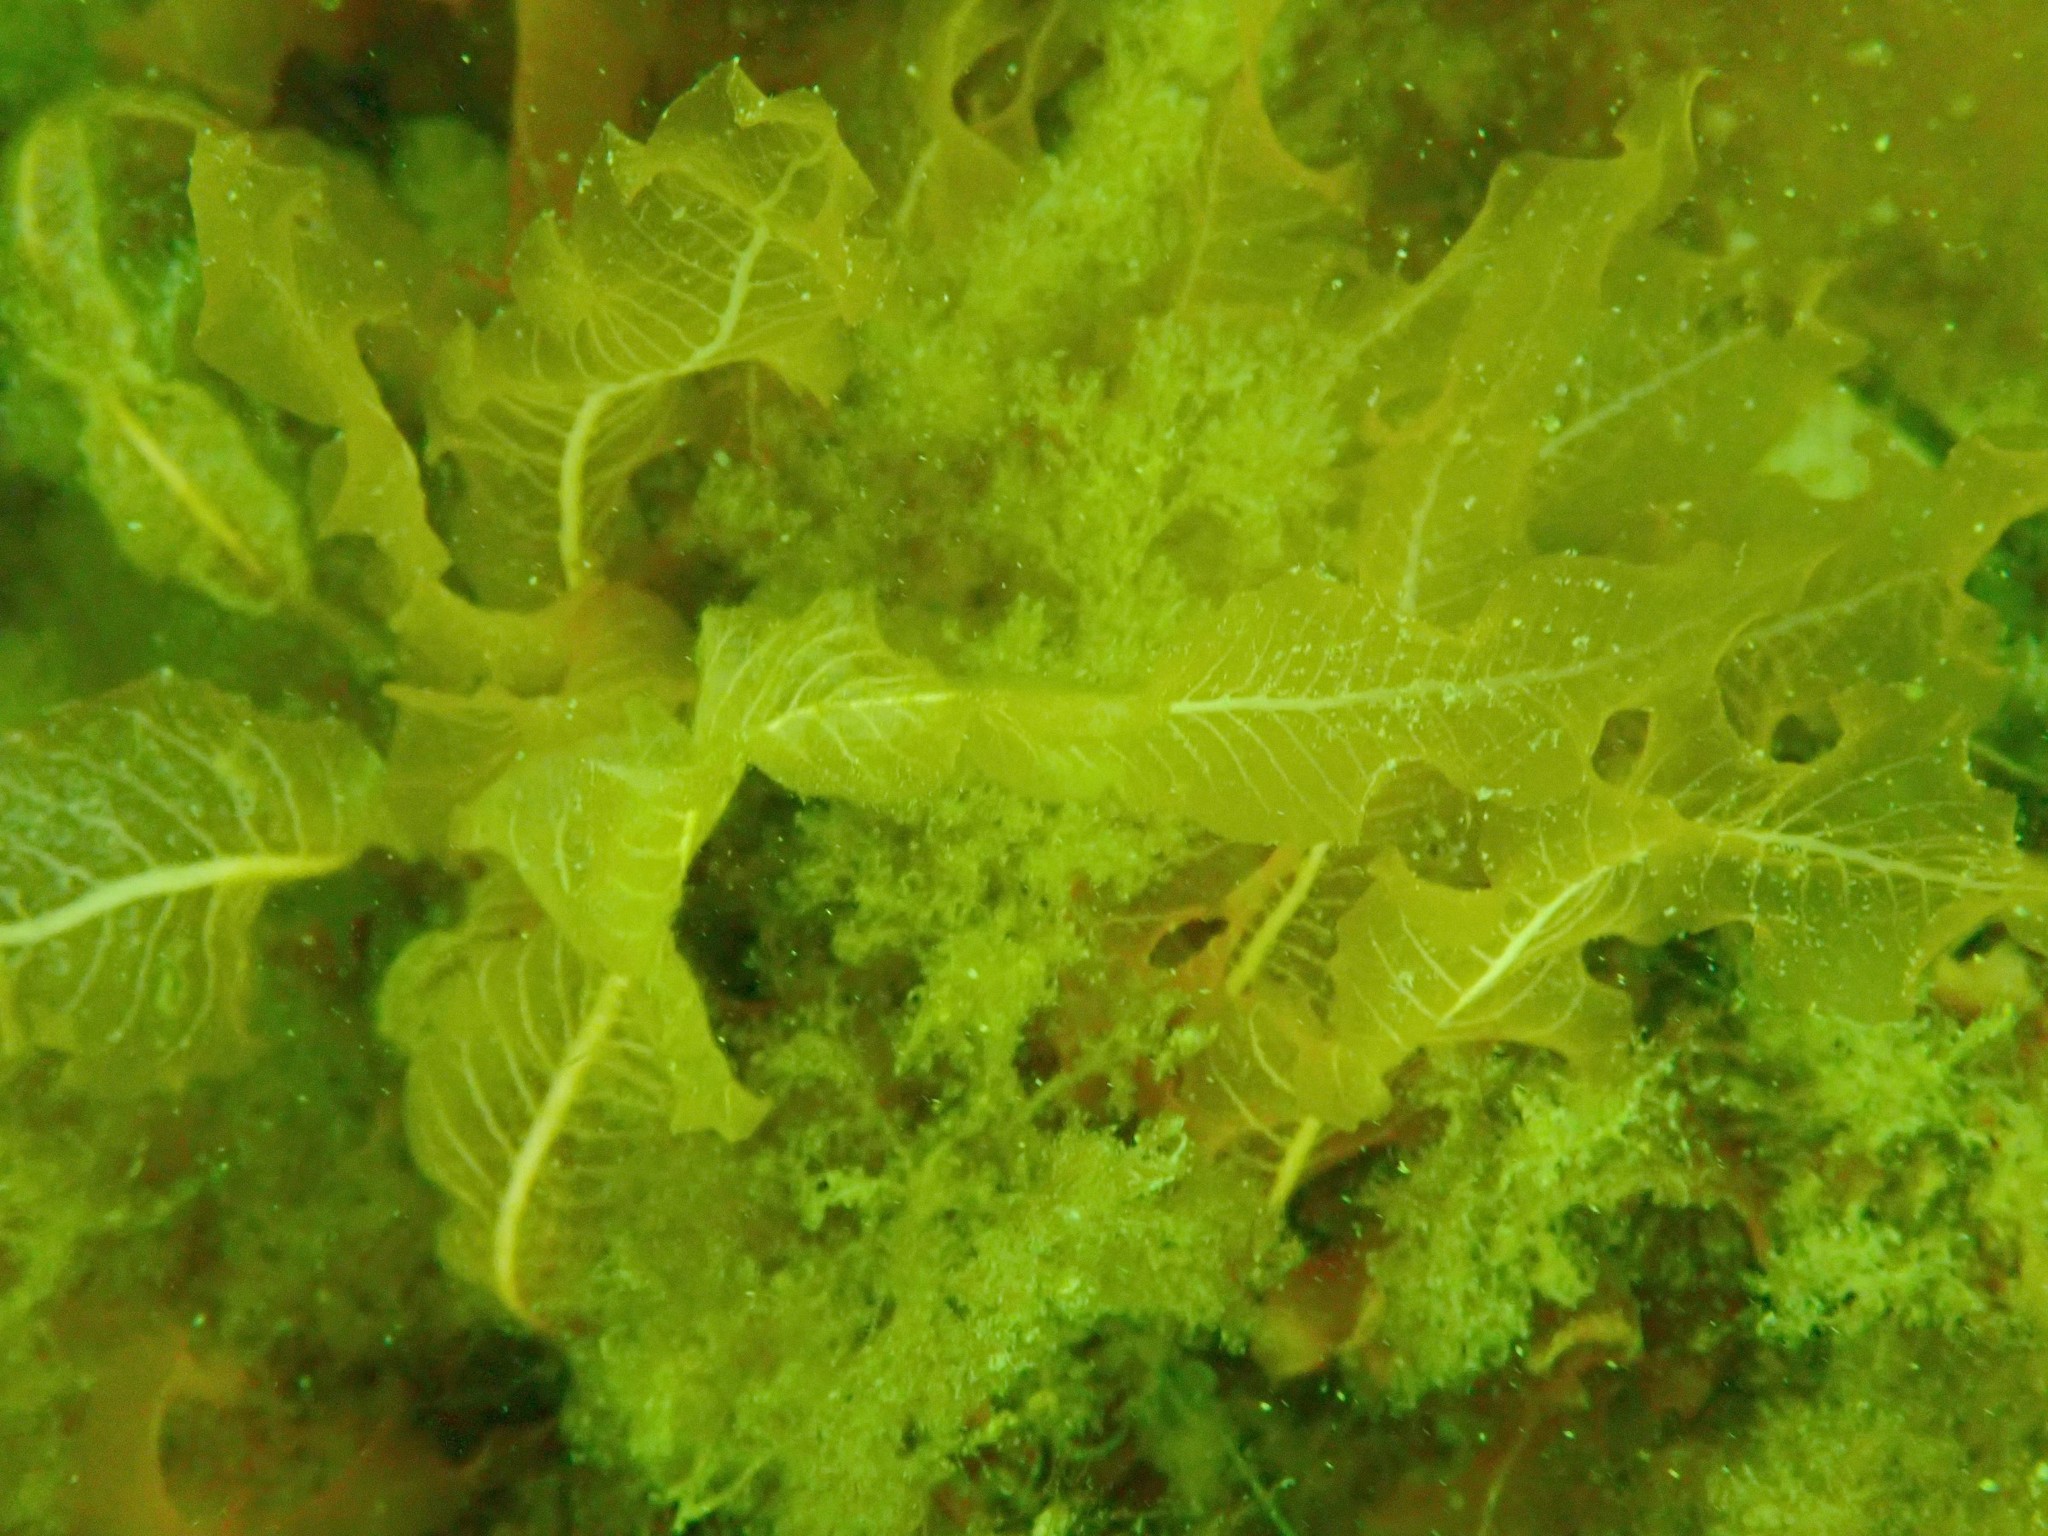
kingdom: Plantae
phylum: Rhodophyta
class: Florideophyceae
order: Ceramiales
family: Delesseriaceae
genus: Delesseria
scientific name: Delesseria sanguinea
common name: Sea beech
